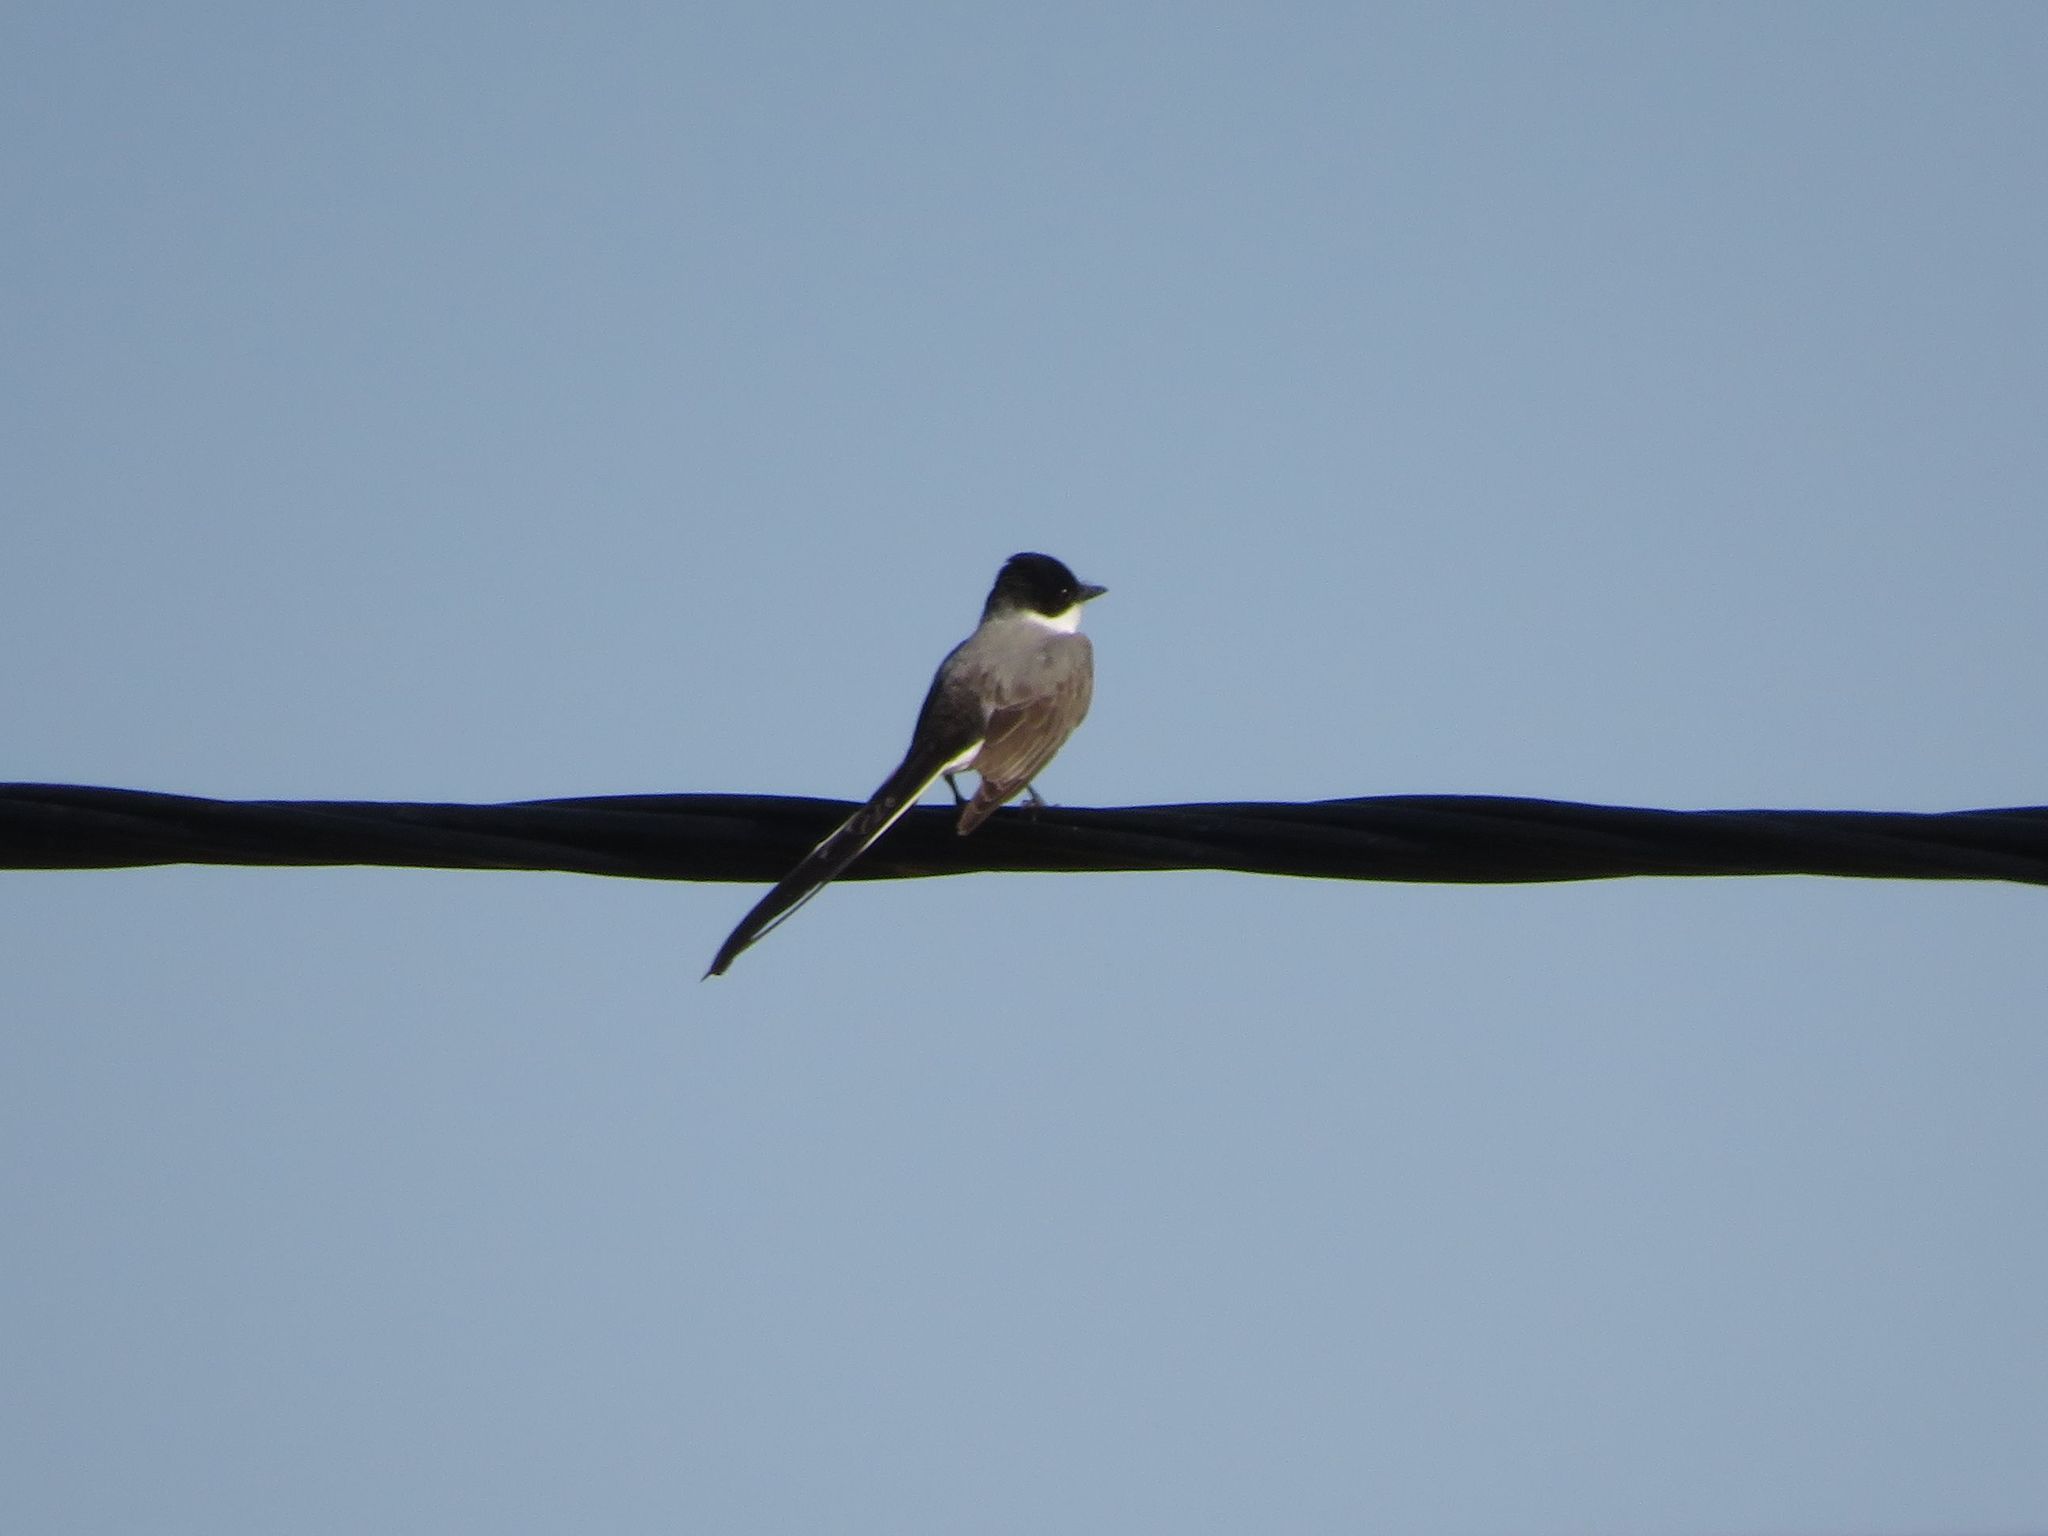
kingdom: Animalia
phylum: Chordata
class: Aves
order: Passeriformes
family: Tyrannidae
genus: Tyrannus
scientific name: Tyrannus savana
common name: Fork-tailed flycatcher
